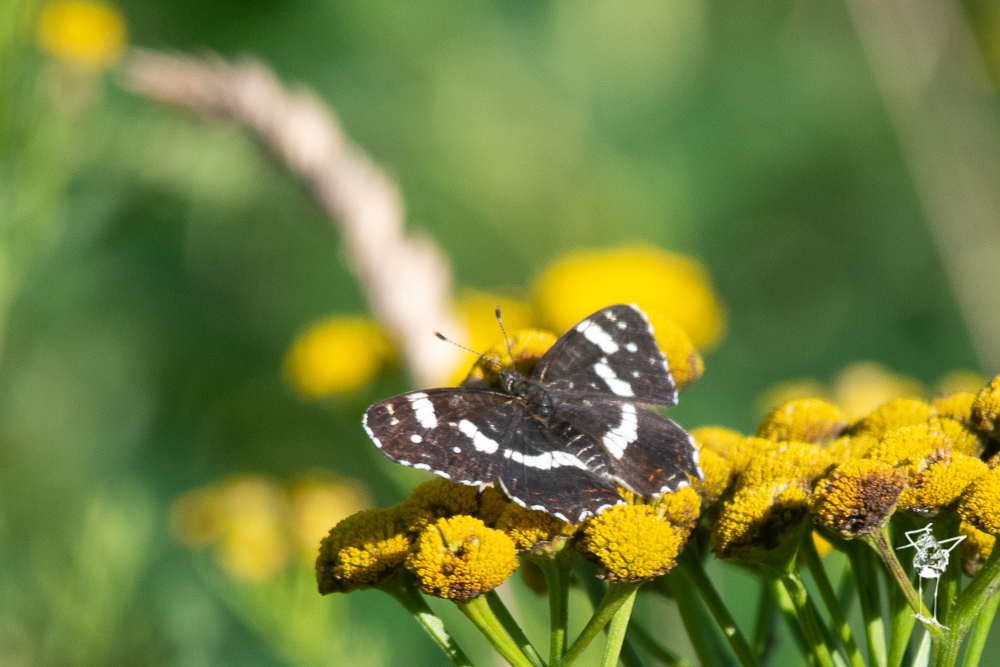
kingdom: Animalia
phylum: Arthropoda
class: Insecta
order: Lepidoptera
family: Nymphalidae
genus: Araschnia
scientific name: Araschnia levana
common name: Map butterfly
